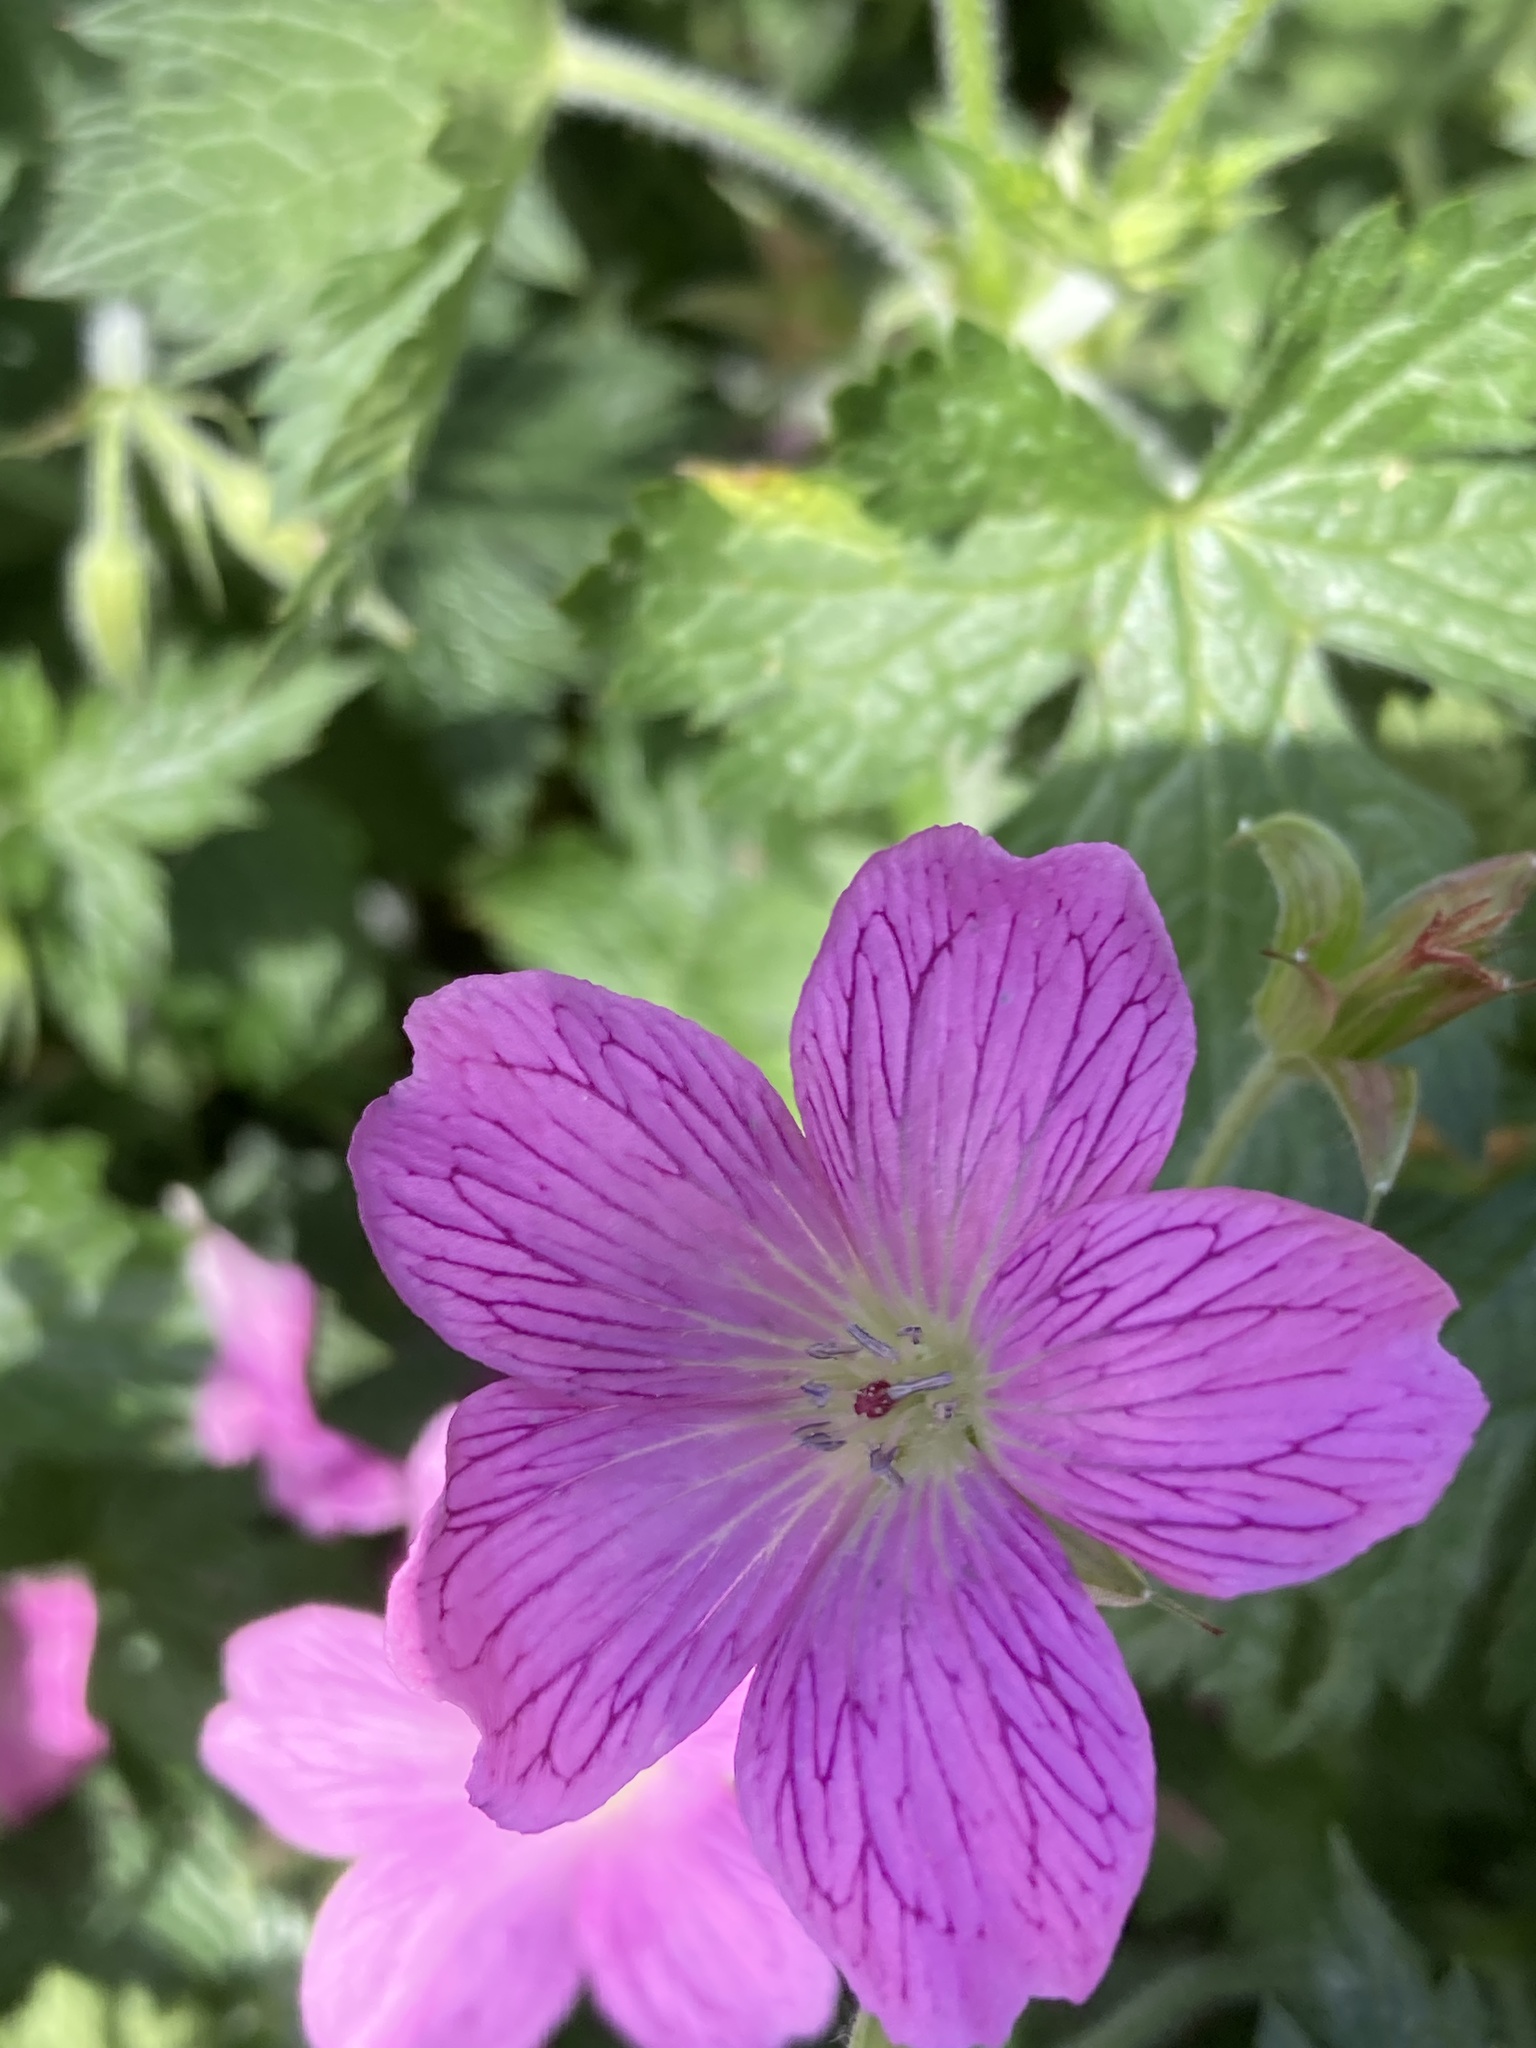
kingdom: Plantae
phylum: Tracheophyta
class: Magnoliopsida
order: Geraniales
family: Geraniaceae
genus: Geranium
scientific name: Geranium oxonianum
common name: Druce's crane's-bill
